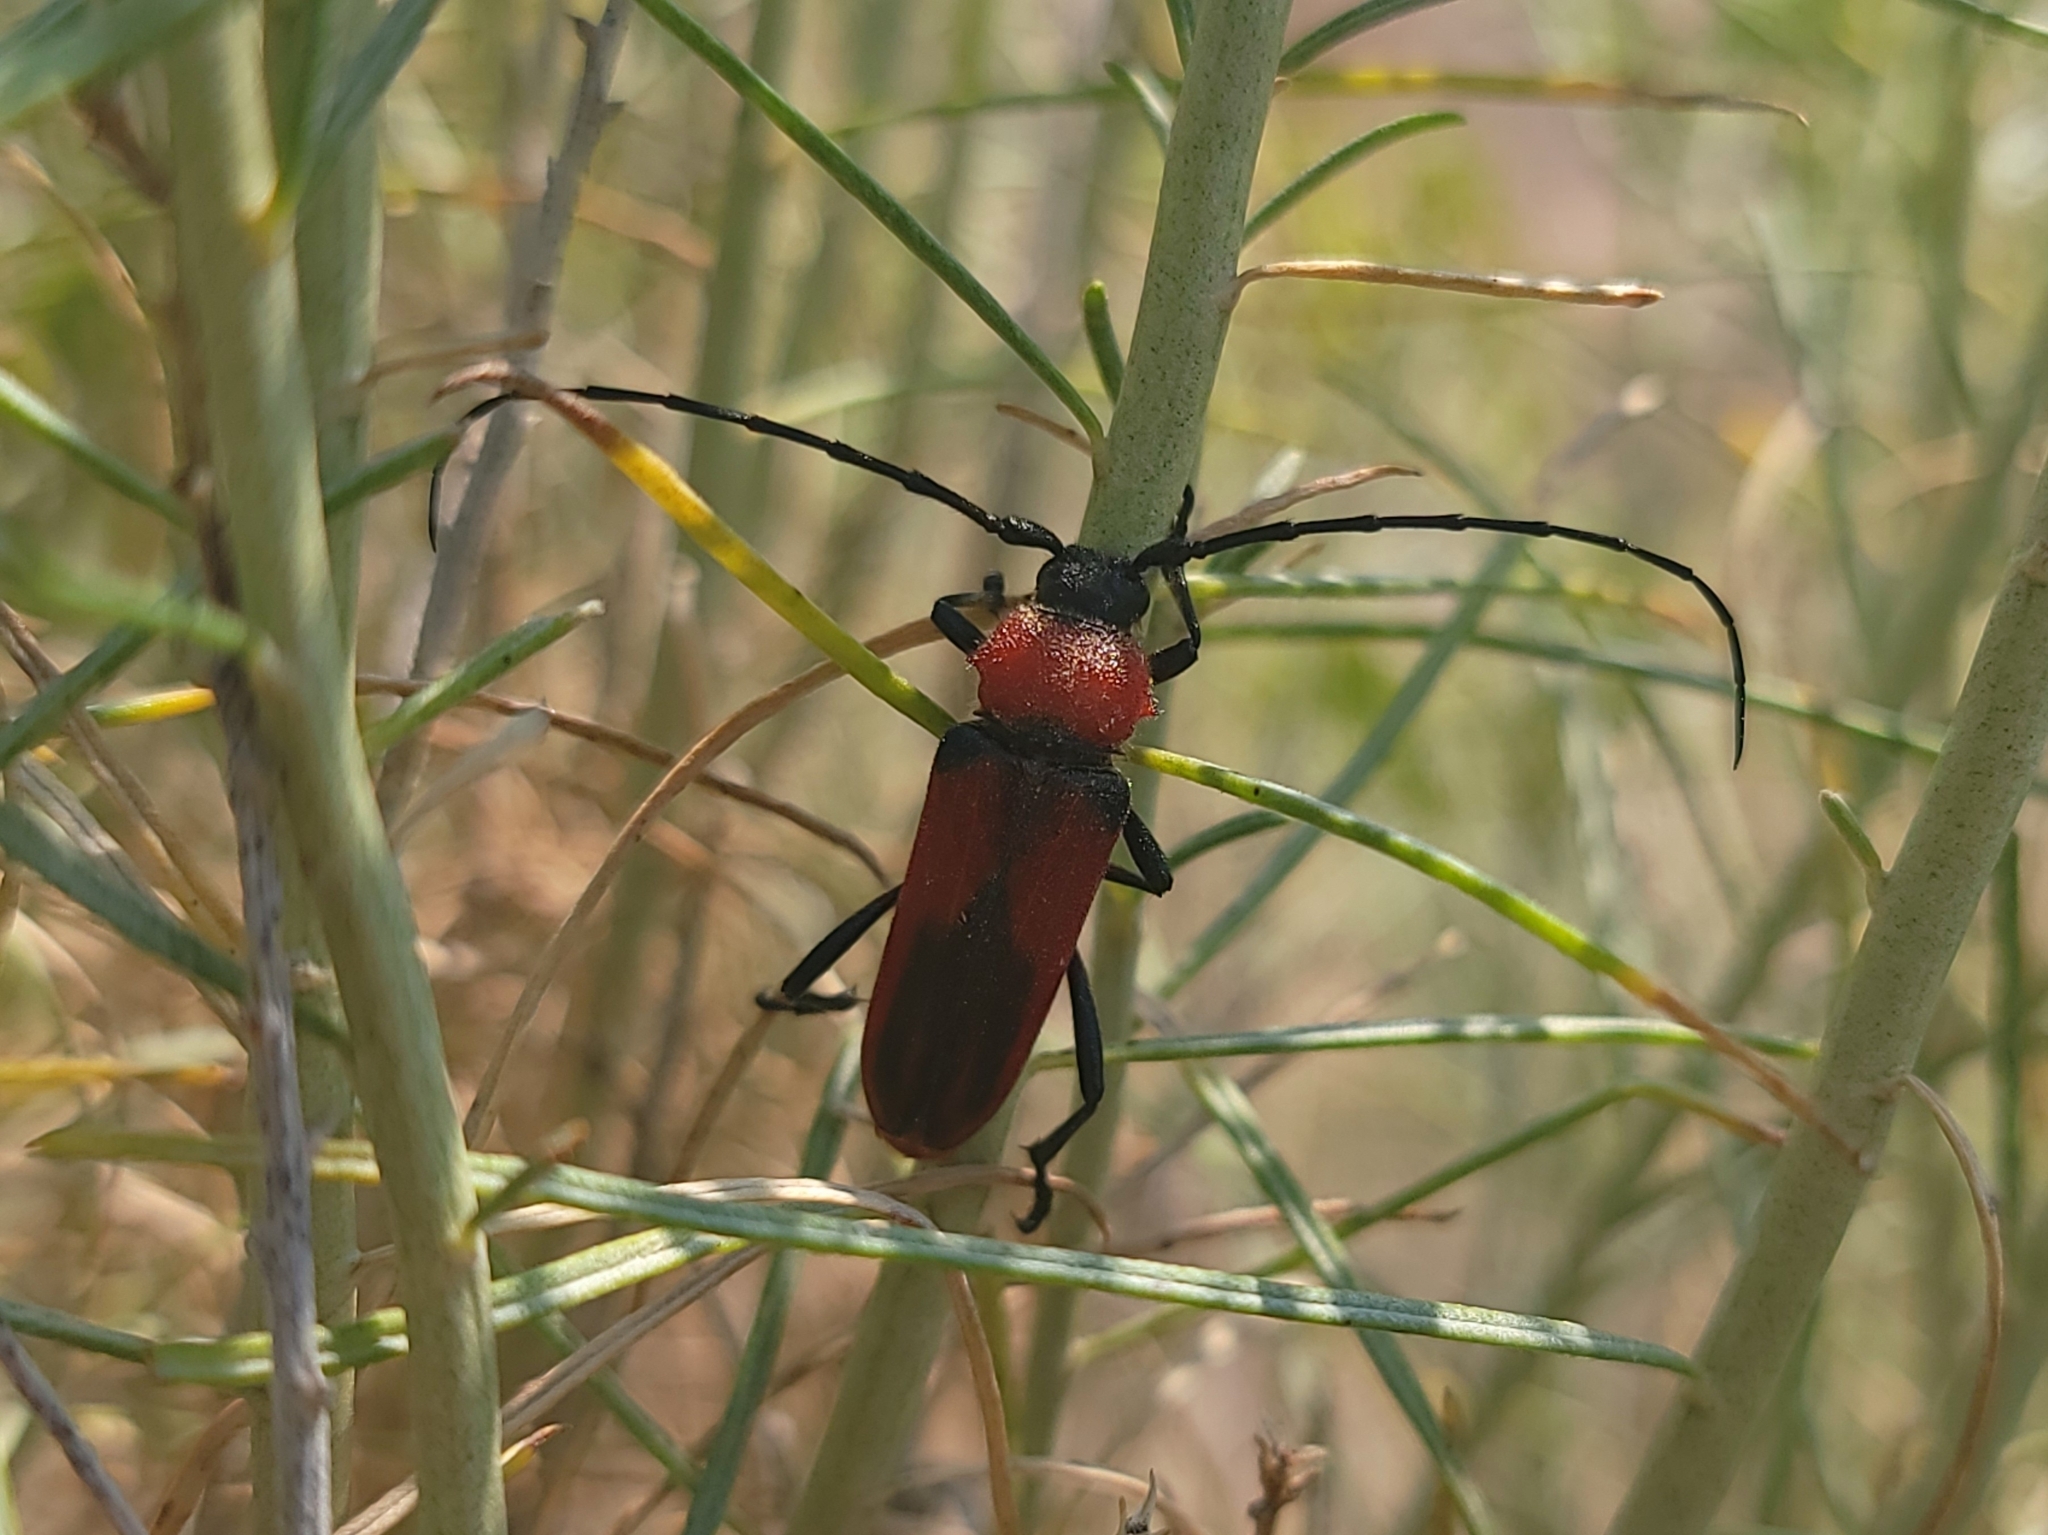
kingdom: Animalia
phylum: Arthropoda
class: Insecta
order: Coleoptera
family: Cerambycidae
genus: Crossidius
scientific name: Crossidius coralinus
